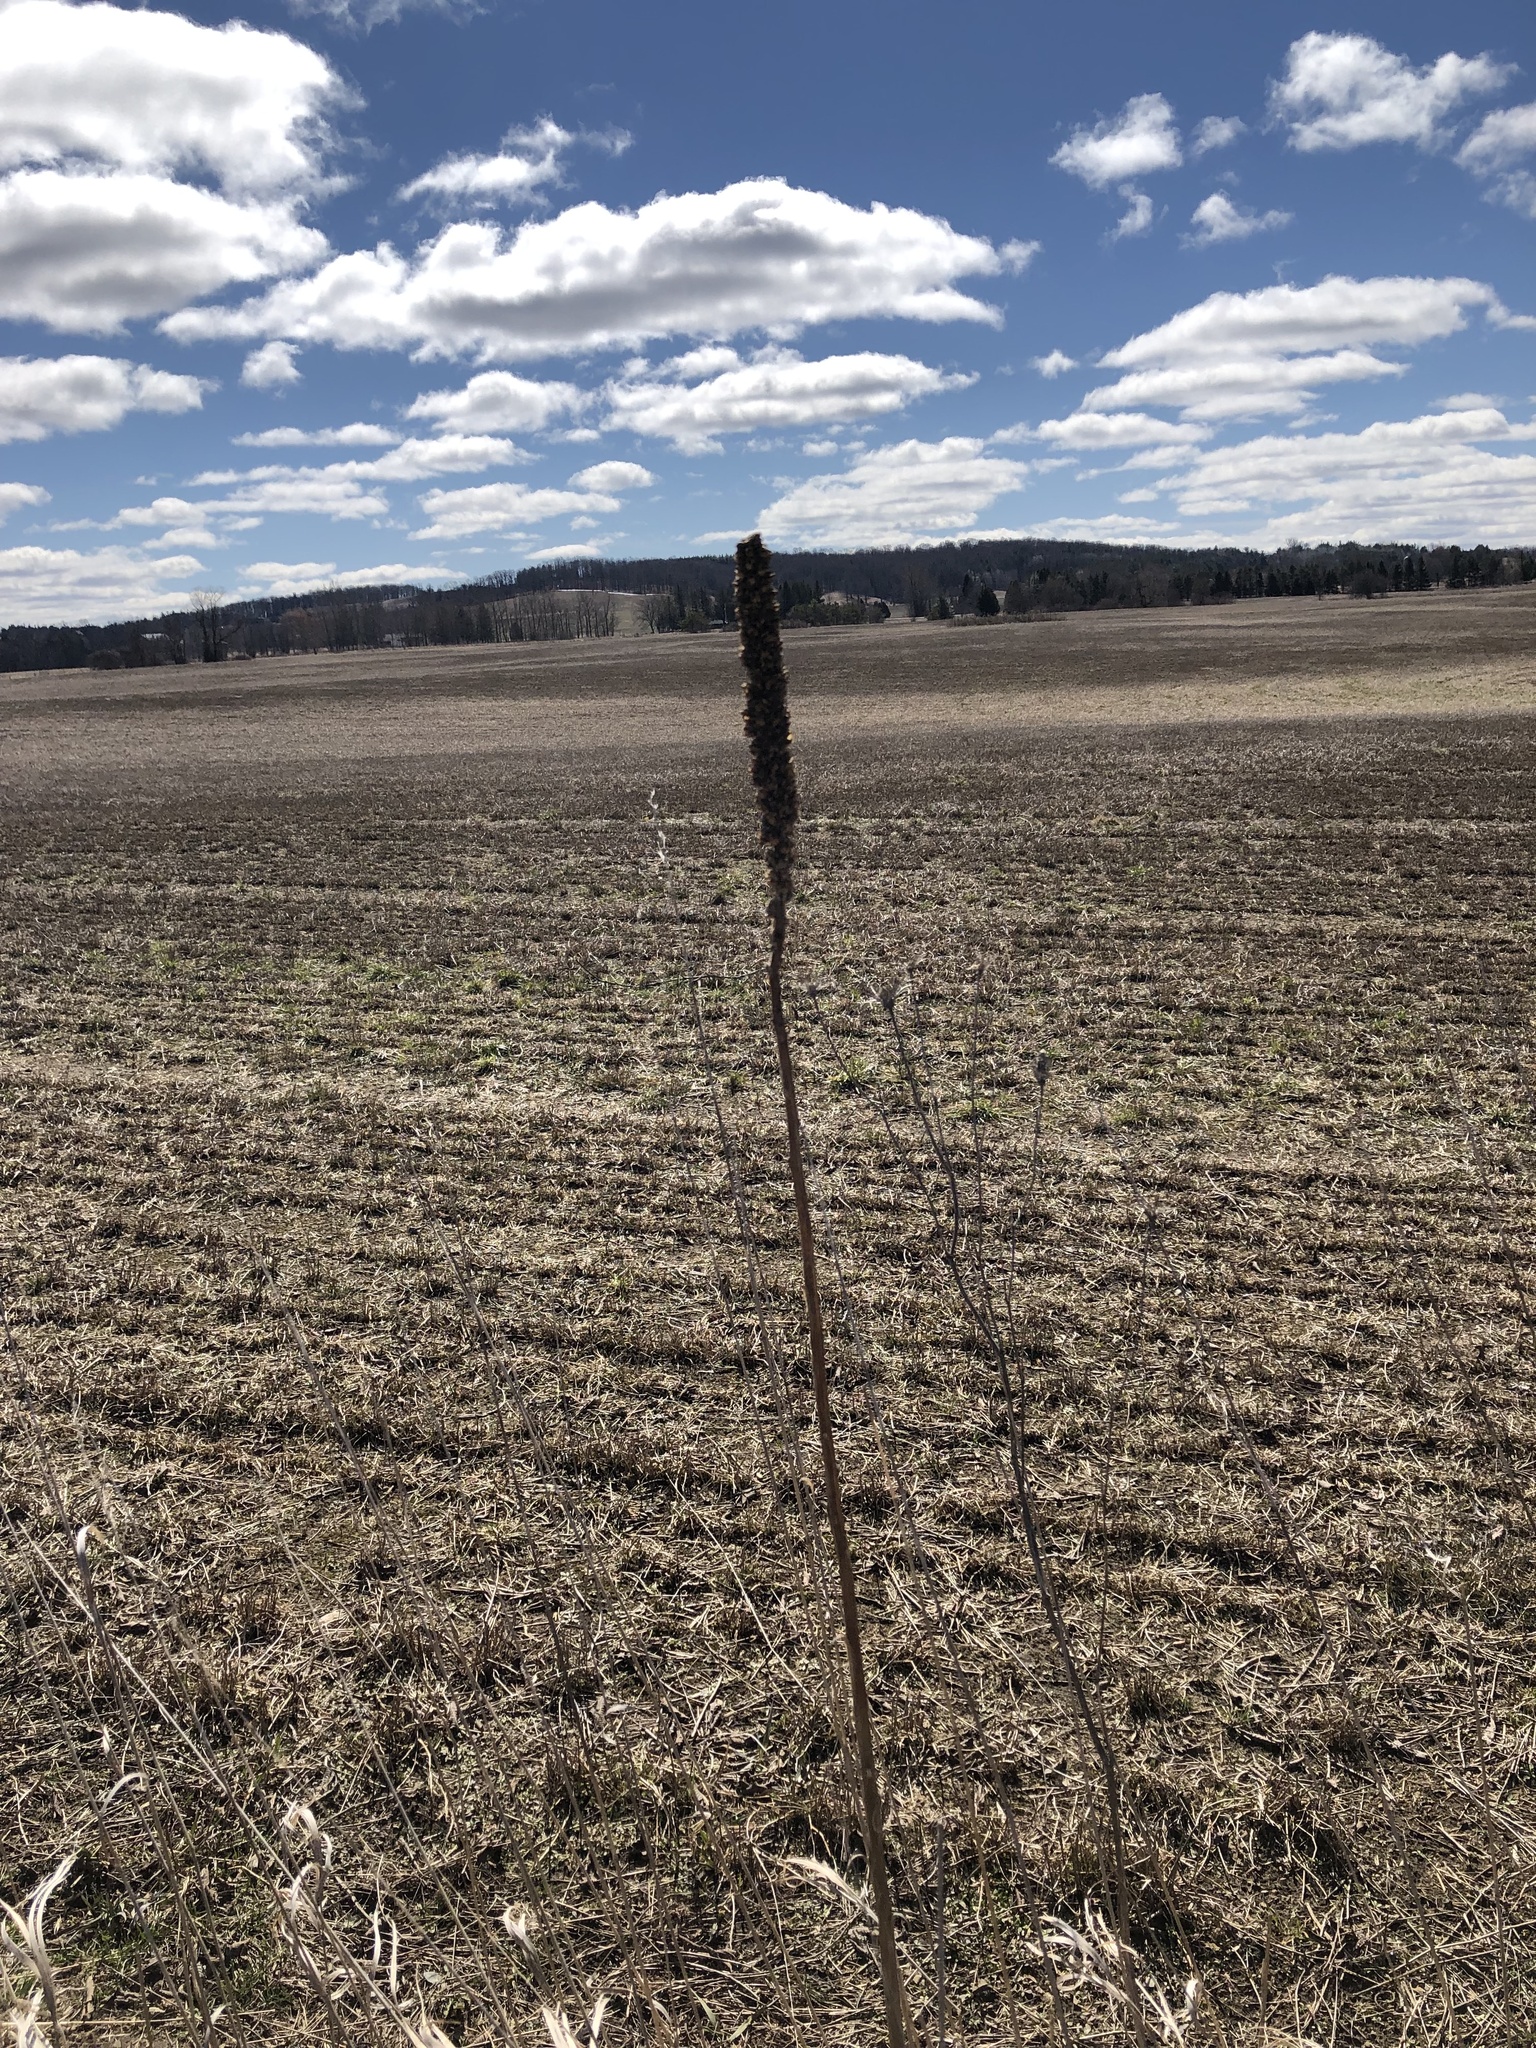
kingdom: Plantae
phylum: Tracheophyta
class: Magnoliopsida
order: Lamiales
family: Scrophulariaceae
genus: Verbascum
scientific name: Verbascum thapsus
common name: Common mullein
